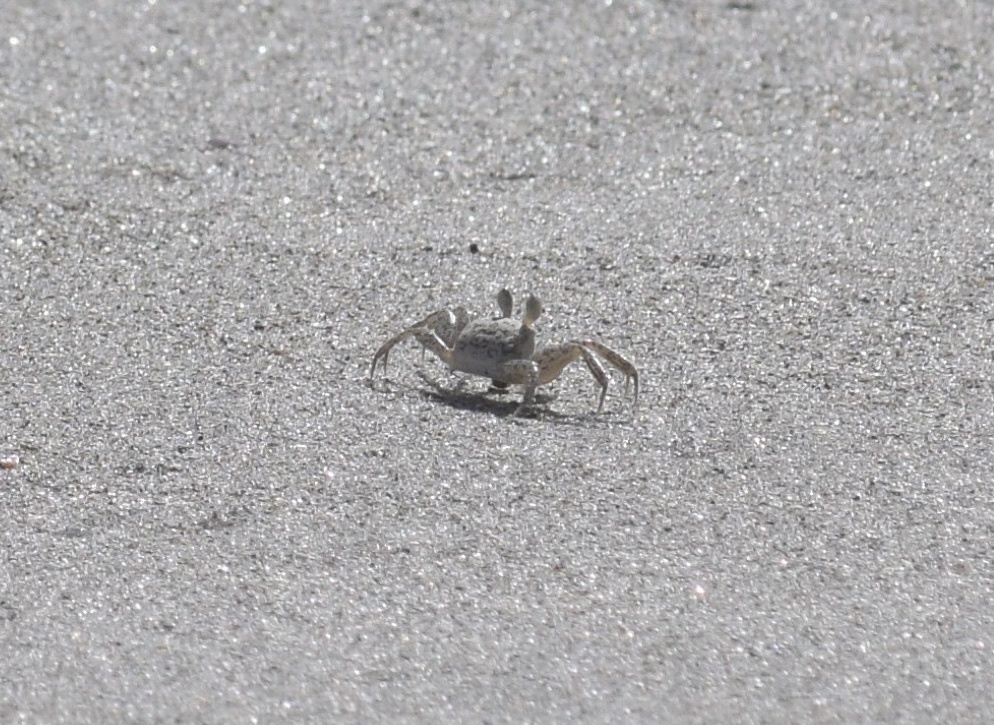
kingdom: Animalia
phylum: Arthropoda
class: Malacostraca
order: Decapoda
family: Ocypodidae
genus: Ocypode
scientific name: Ocypode quadrata
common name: Ghost crab
